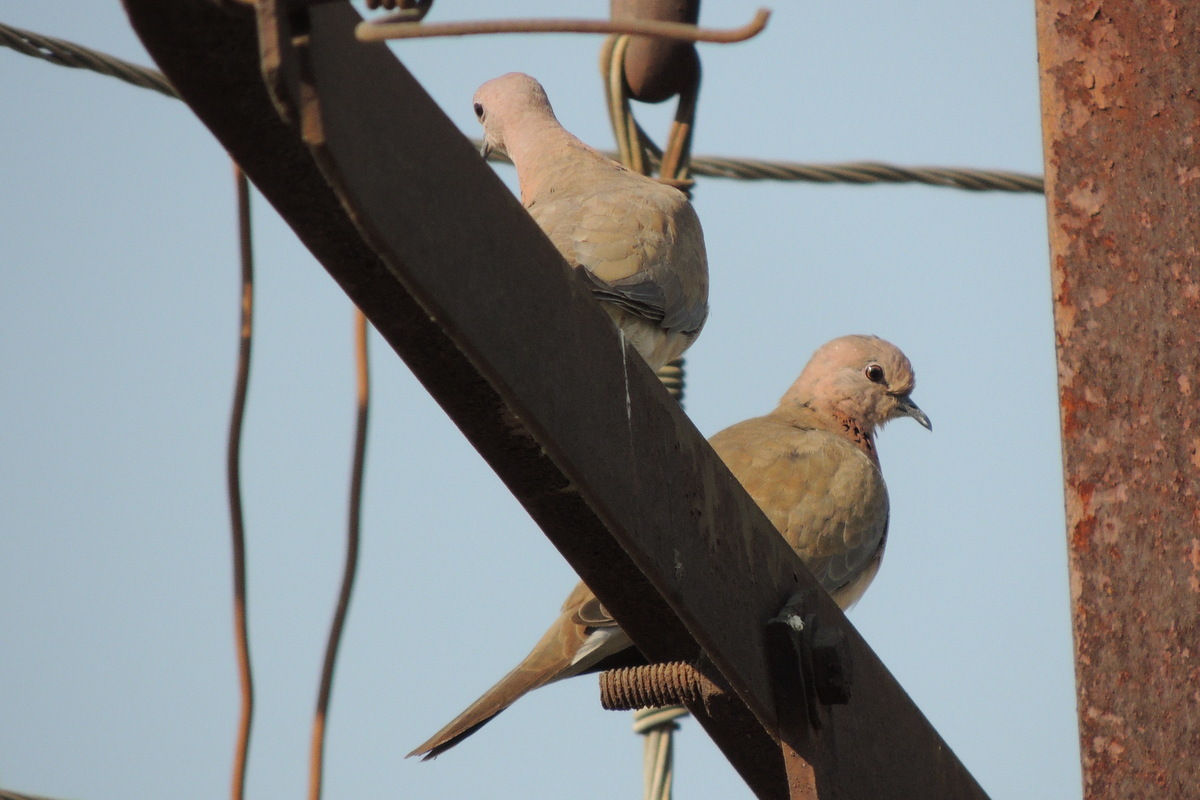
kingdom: Animalia
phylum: Chordata
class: Aves
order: Columbiformes
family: Columbidae
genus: Spilopelia
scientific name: Spilopelia senegalensis
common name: Laughing dove
